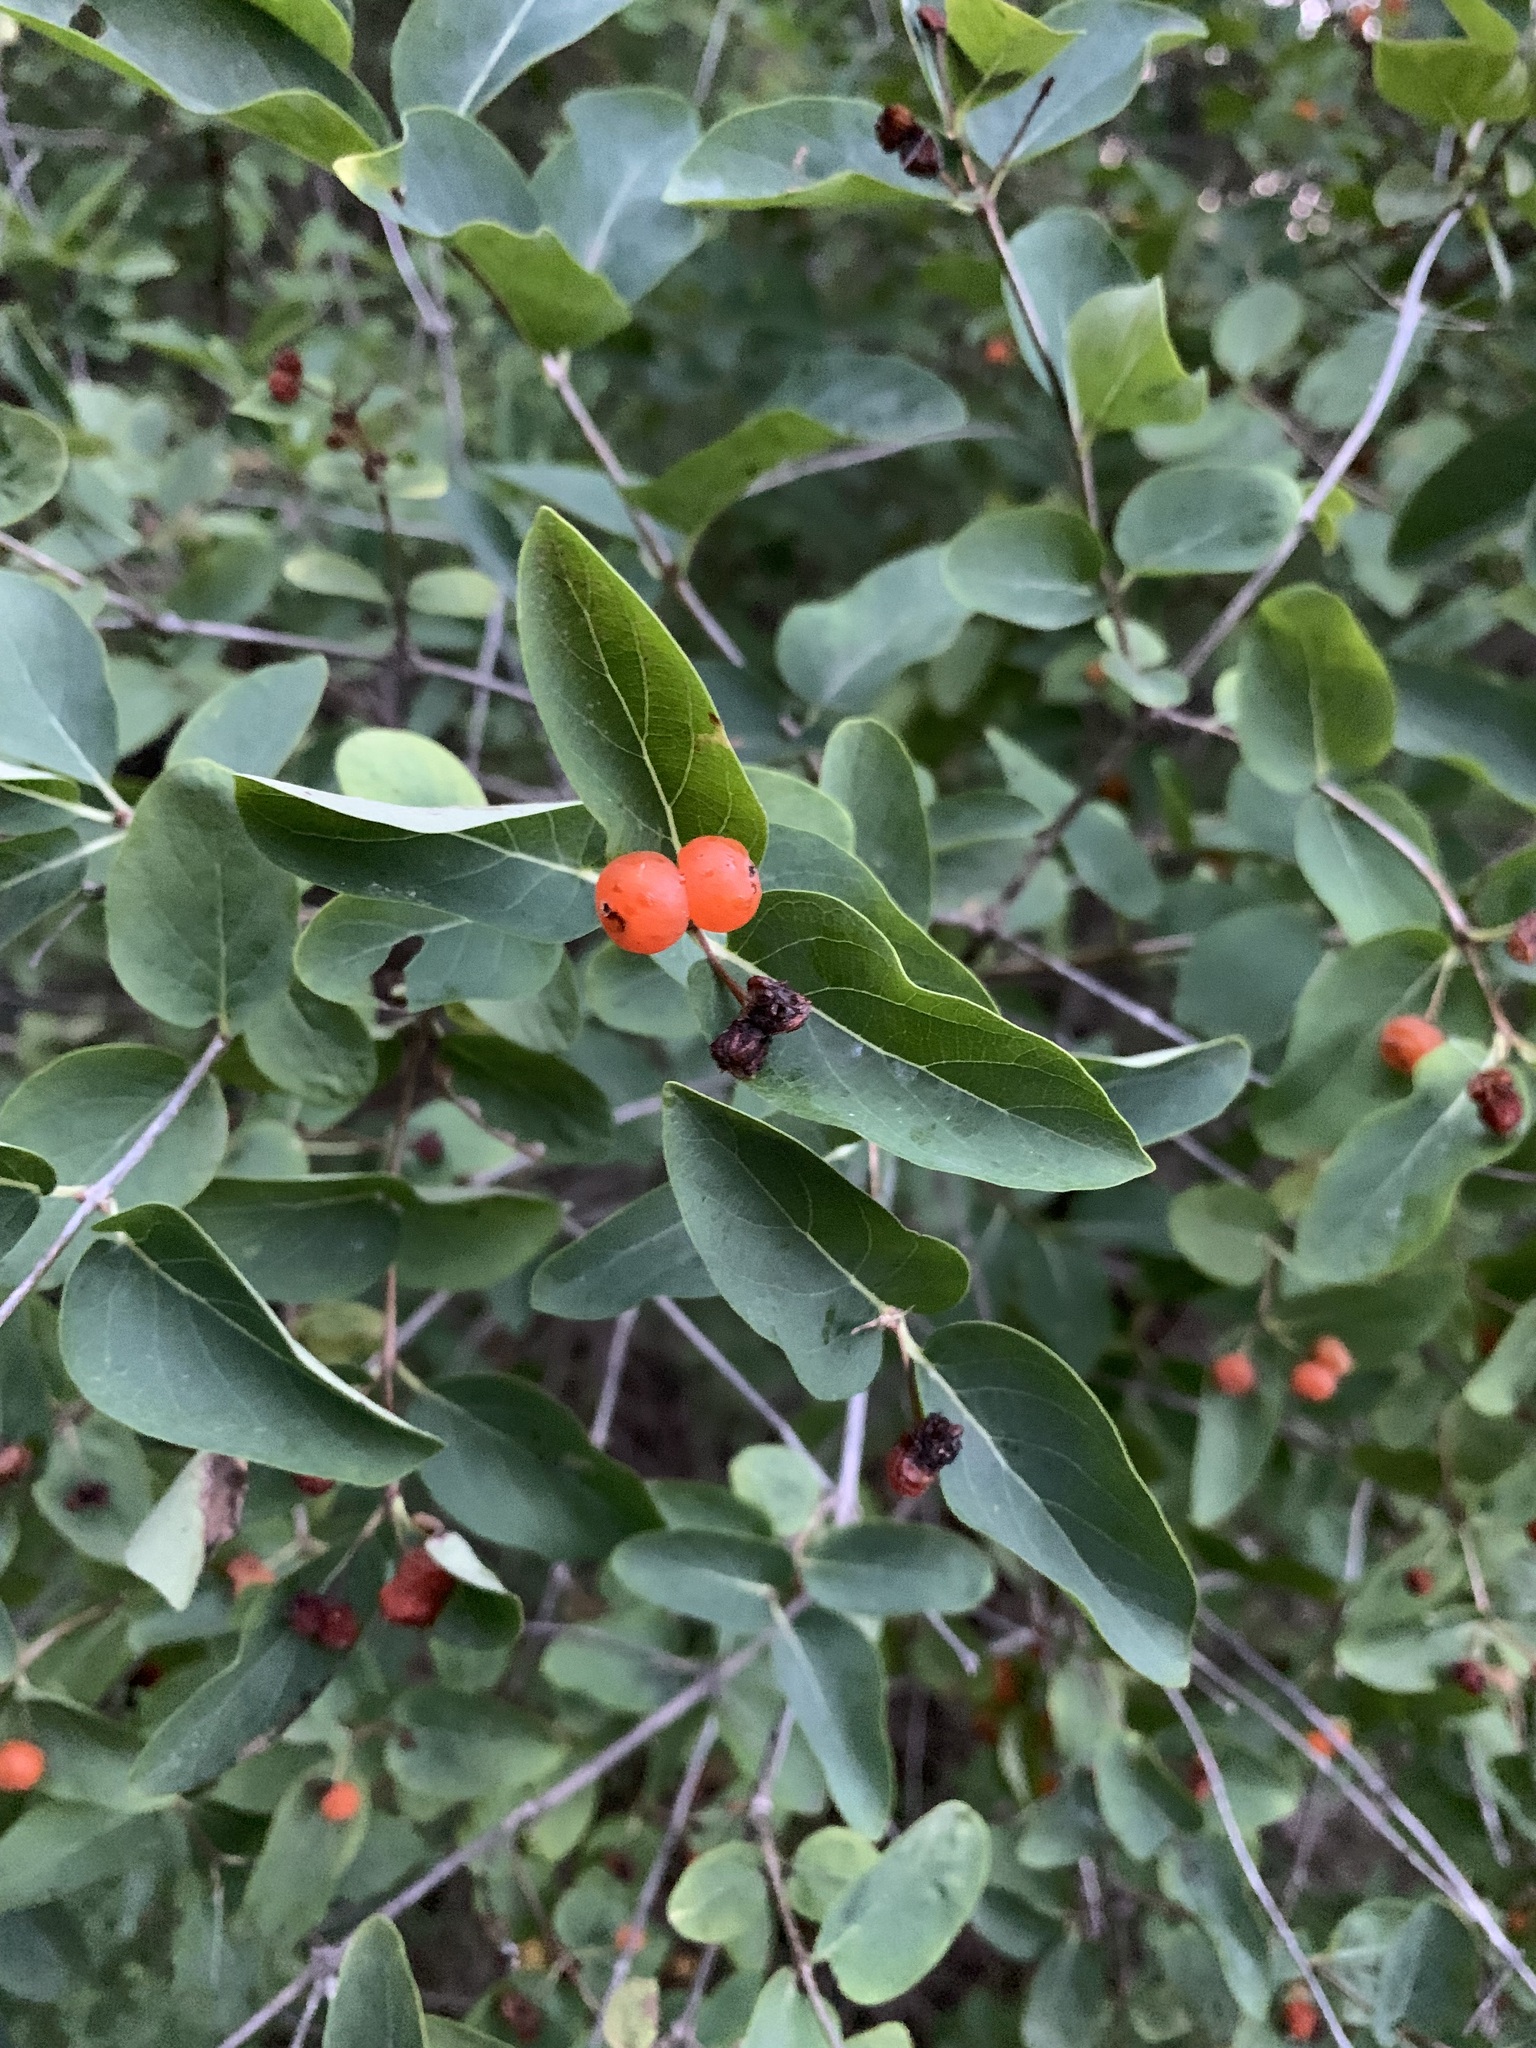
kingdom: Plantae
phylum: Tracheophyta
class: Magnoliopsida
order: Dipsacales
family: Caprifoliaceae
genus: Lonicera
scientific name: Lonicera tatarica
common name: Tatarian honeysuckle
